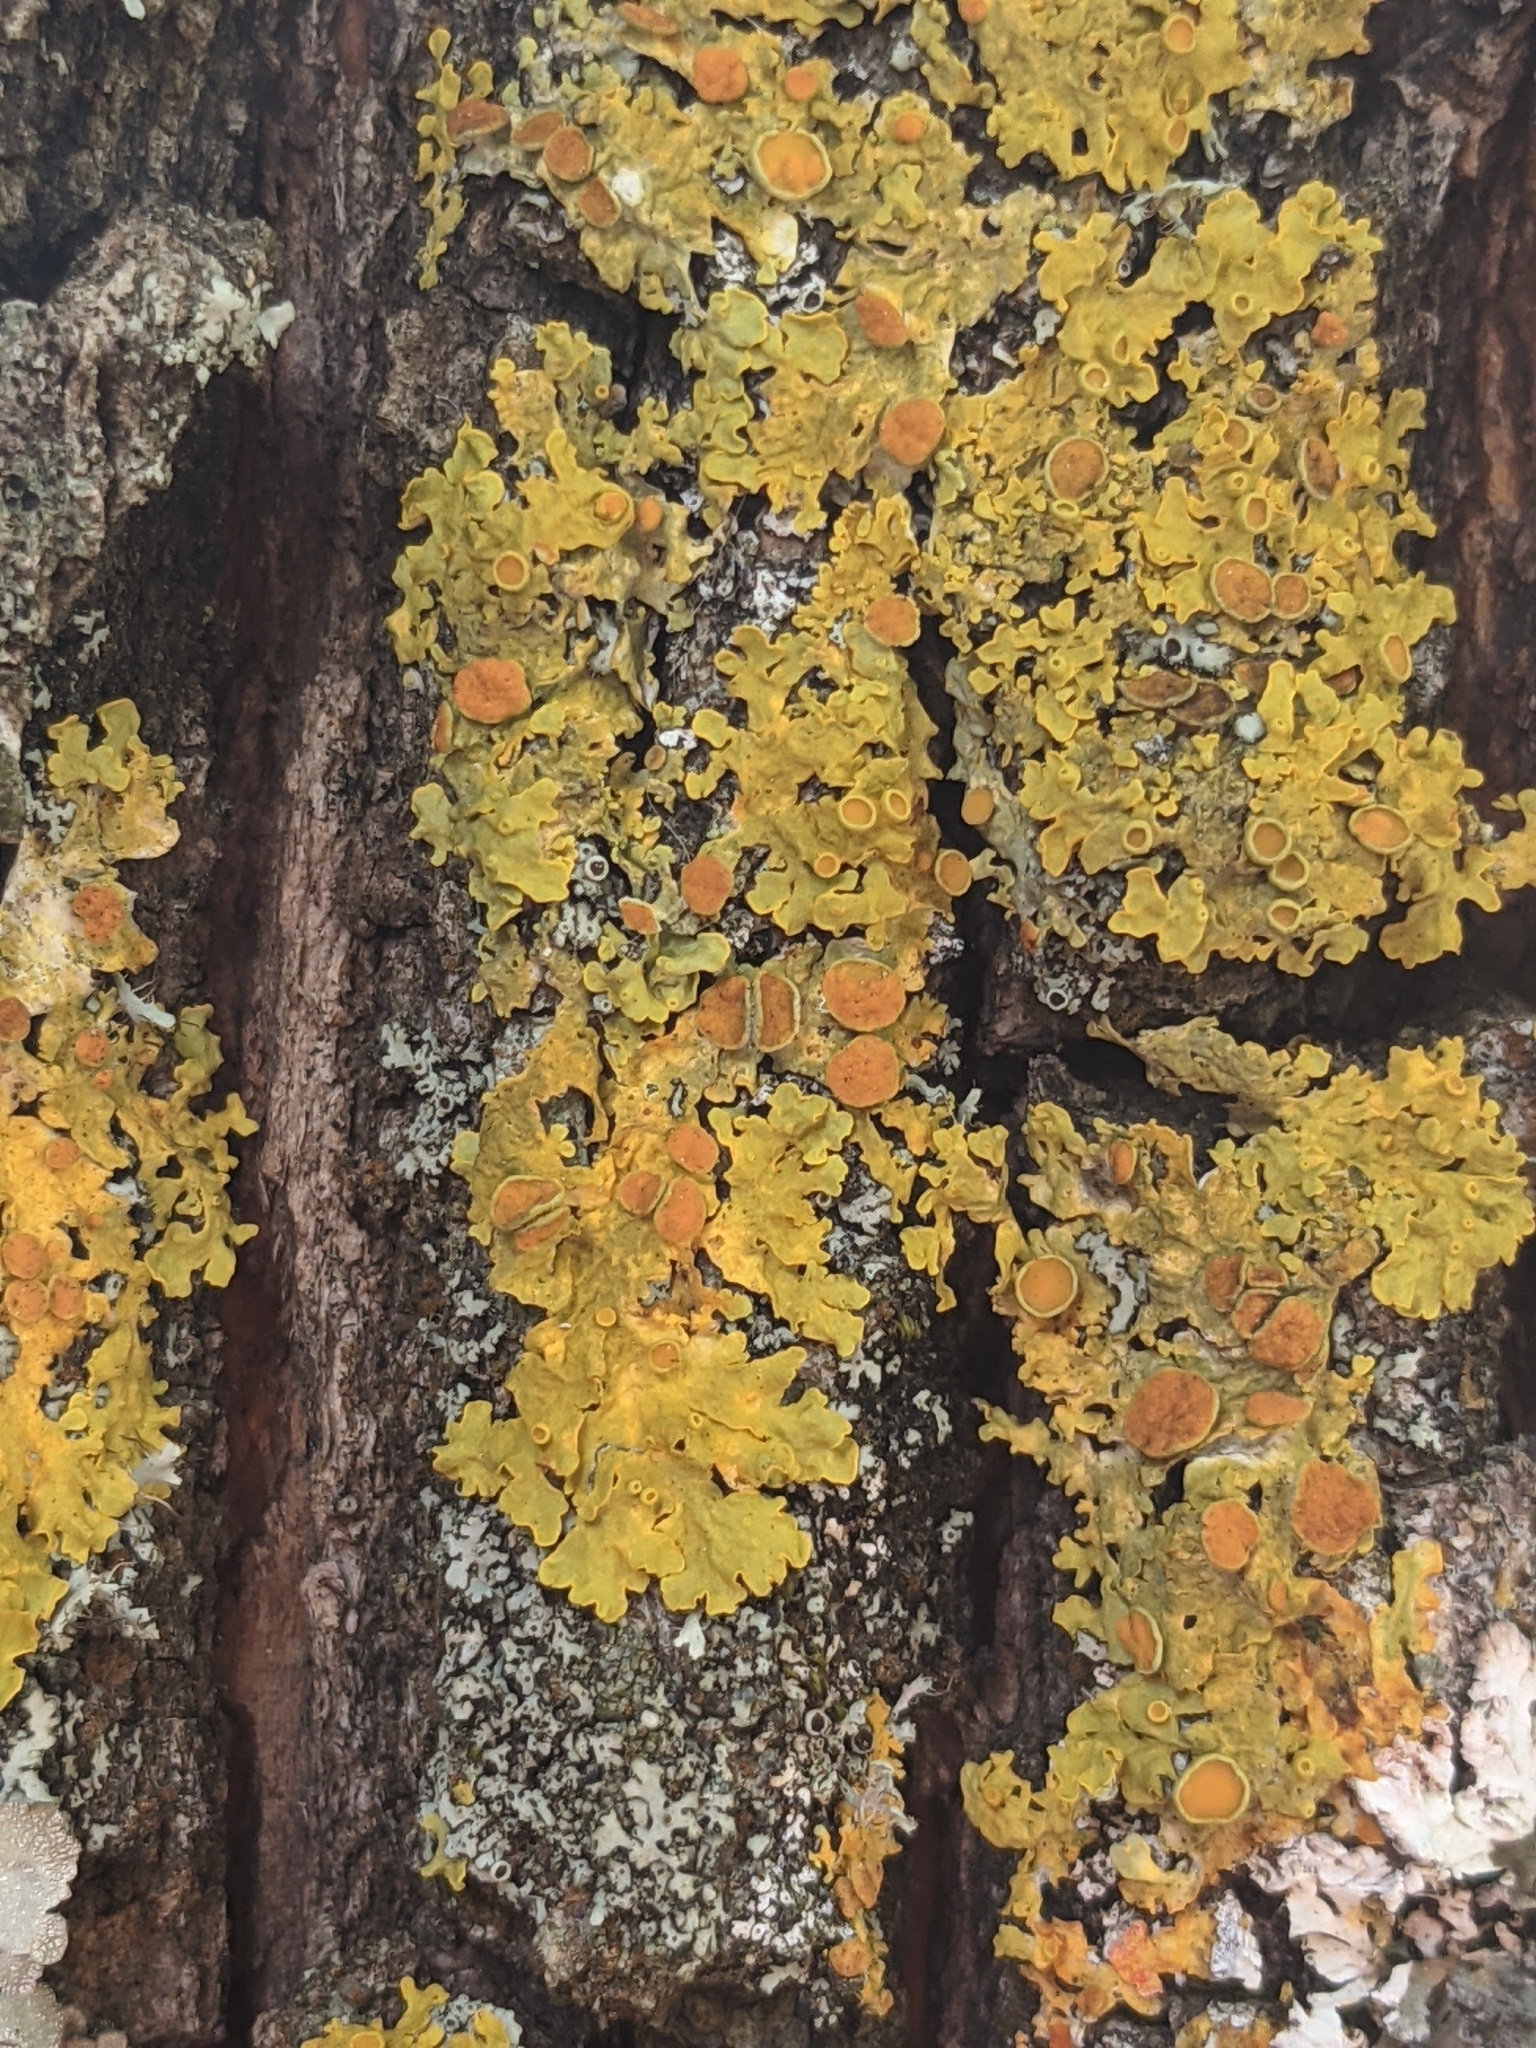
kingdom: Fungi
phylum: Ascomycota
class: Lecanoromycetes
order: Teloschistales
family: Teloschistaceae
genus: Xanthoria
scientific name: Xanthoria parietina
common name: Common orange lichen
